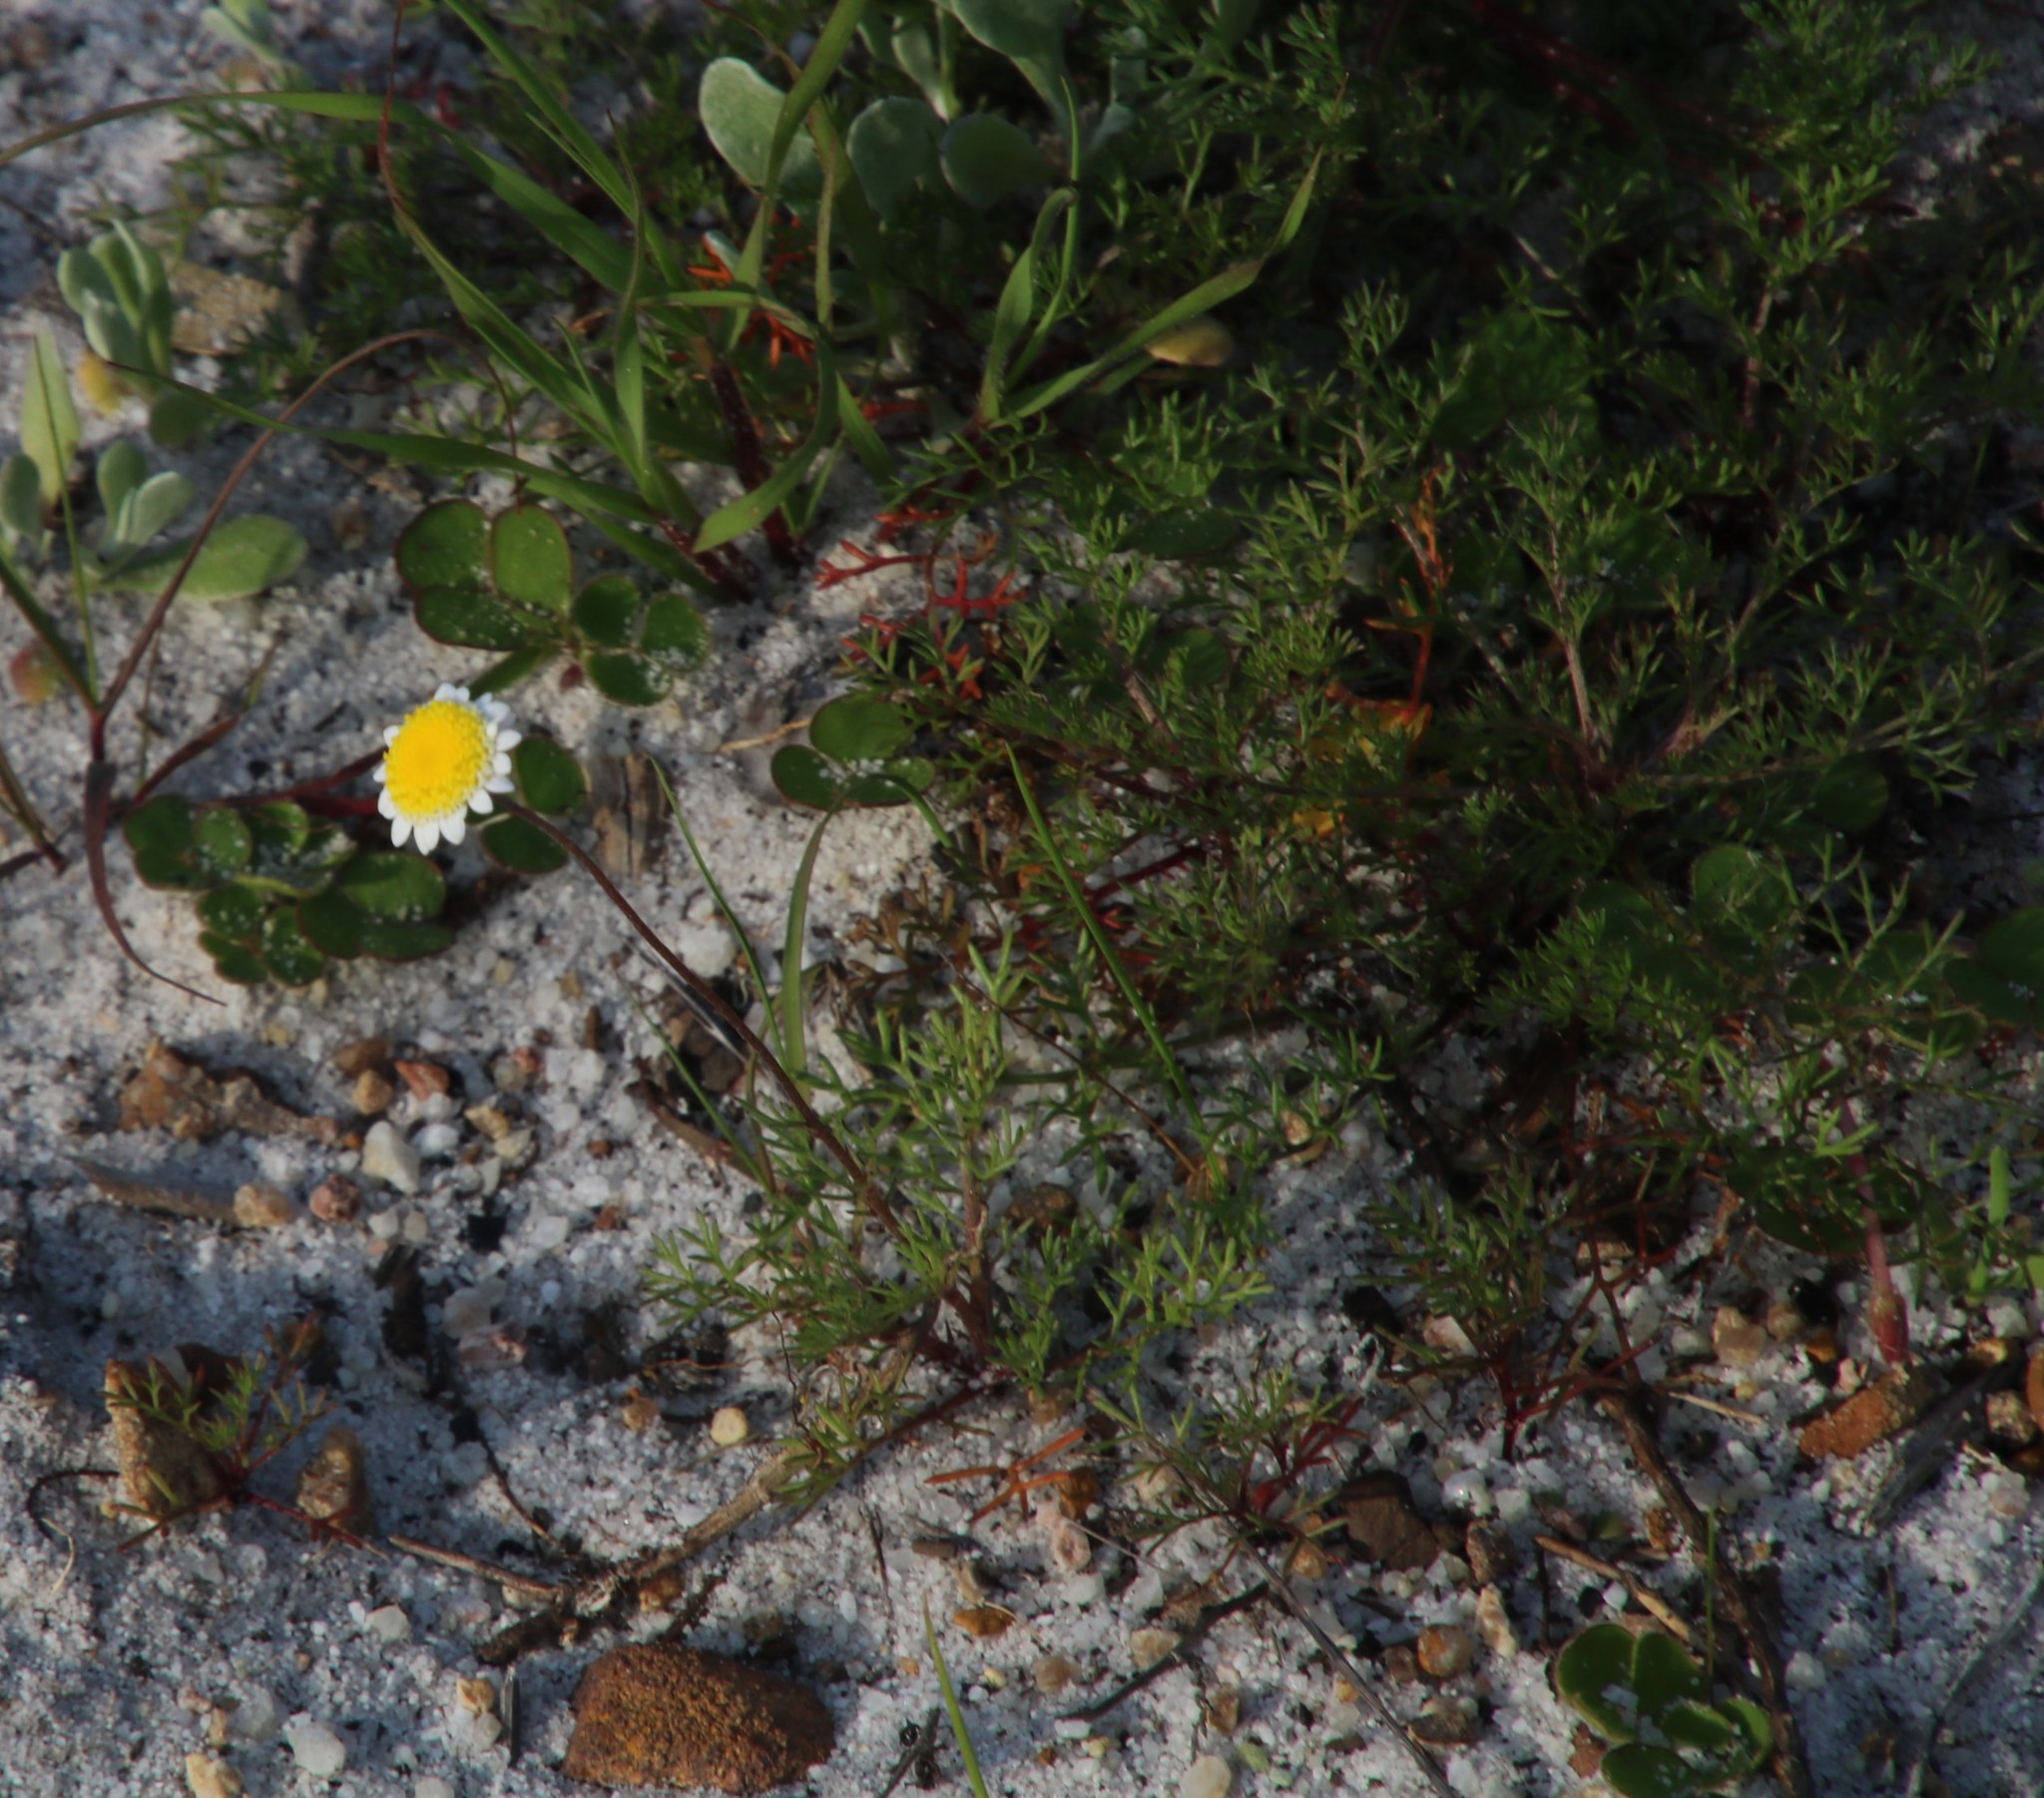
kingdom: Plantae
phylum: Tracheophyta
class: Magnoliopsida
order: Asterales
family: Asteraceae
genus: Cotula
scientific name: Cotula turbinata
